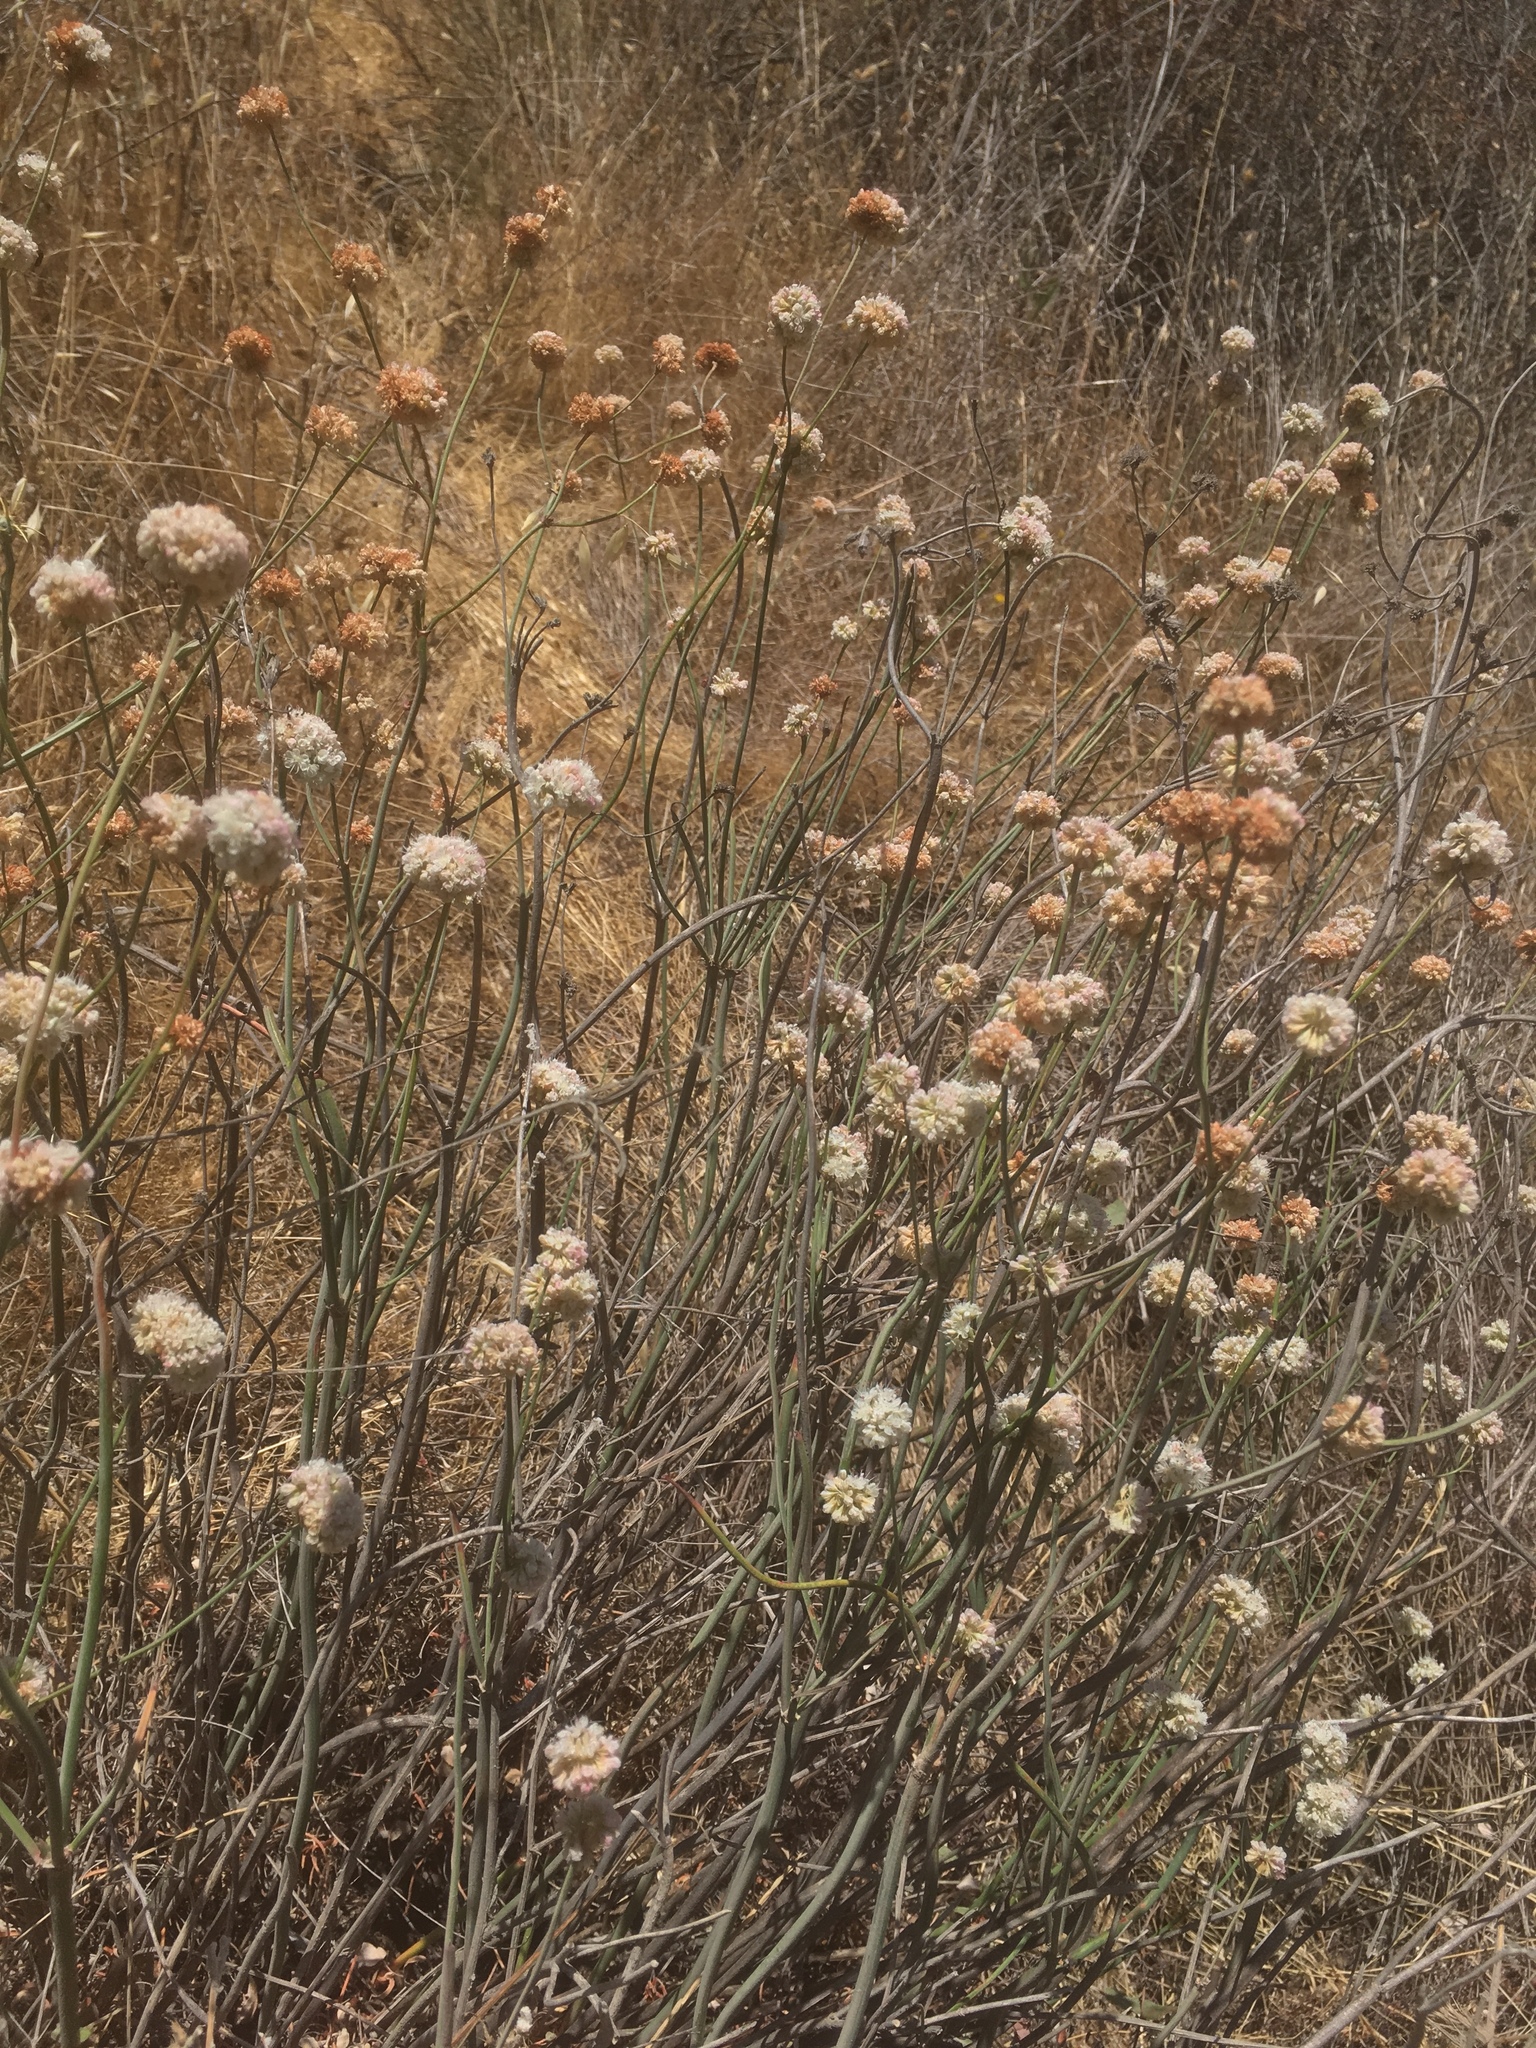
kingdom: Plantae
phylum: Tracheophyta
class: Magnoliopsida
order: Caryophyllales
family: Polygonaceae
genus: Eriogonum
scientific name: Eriogonum nudum
